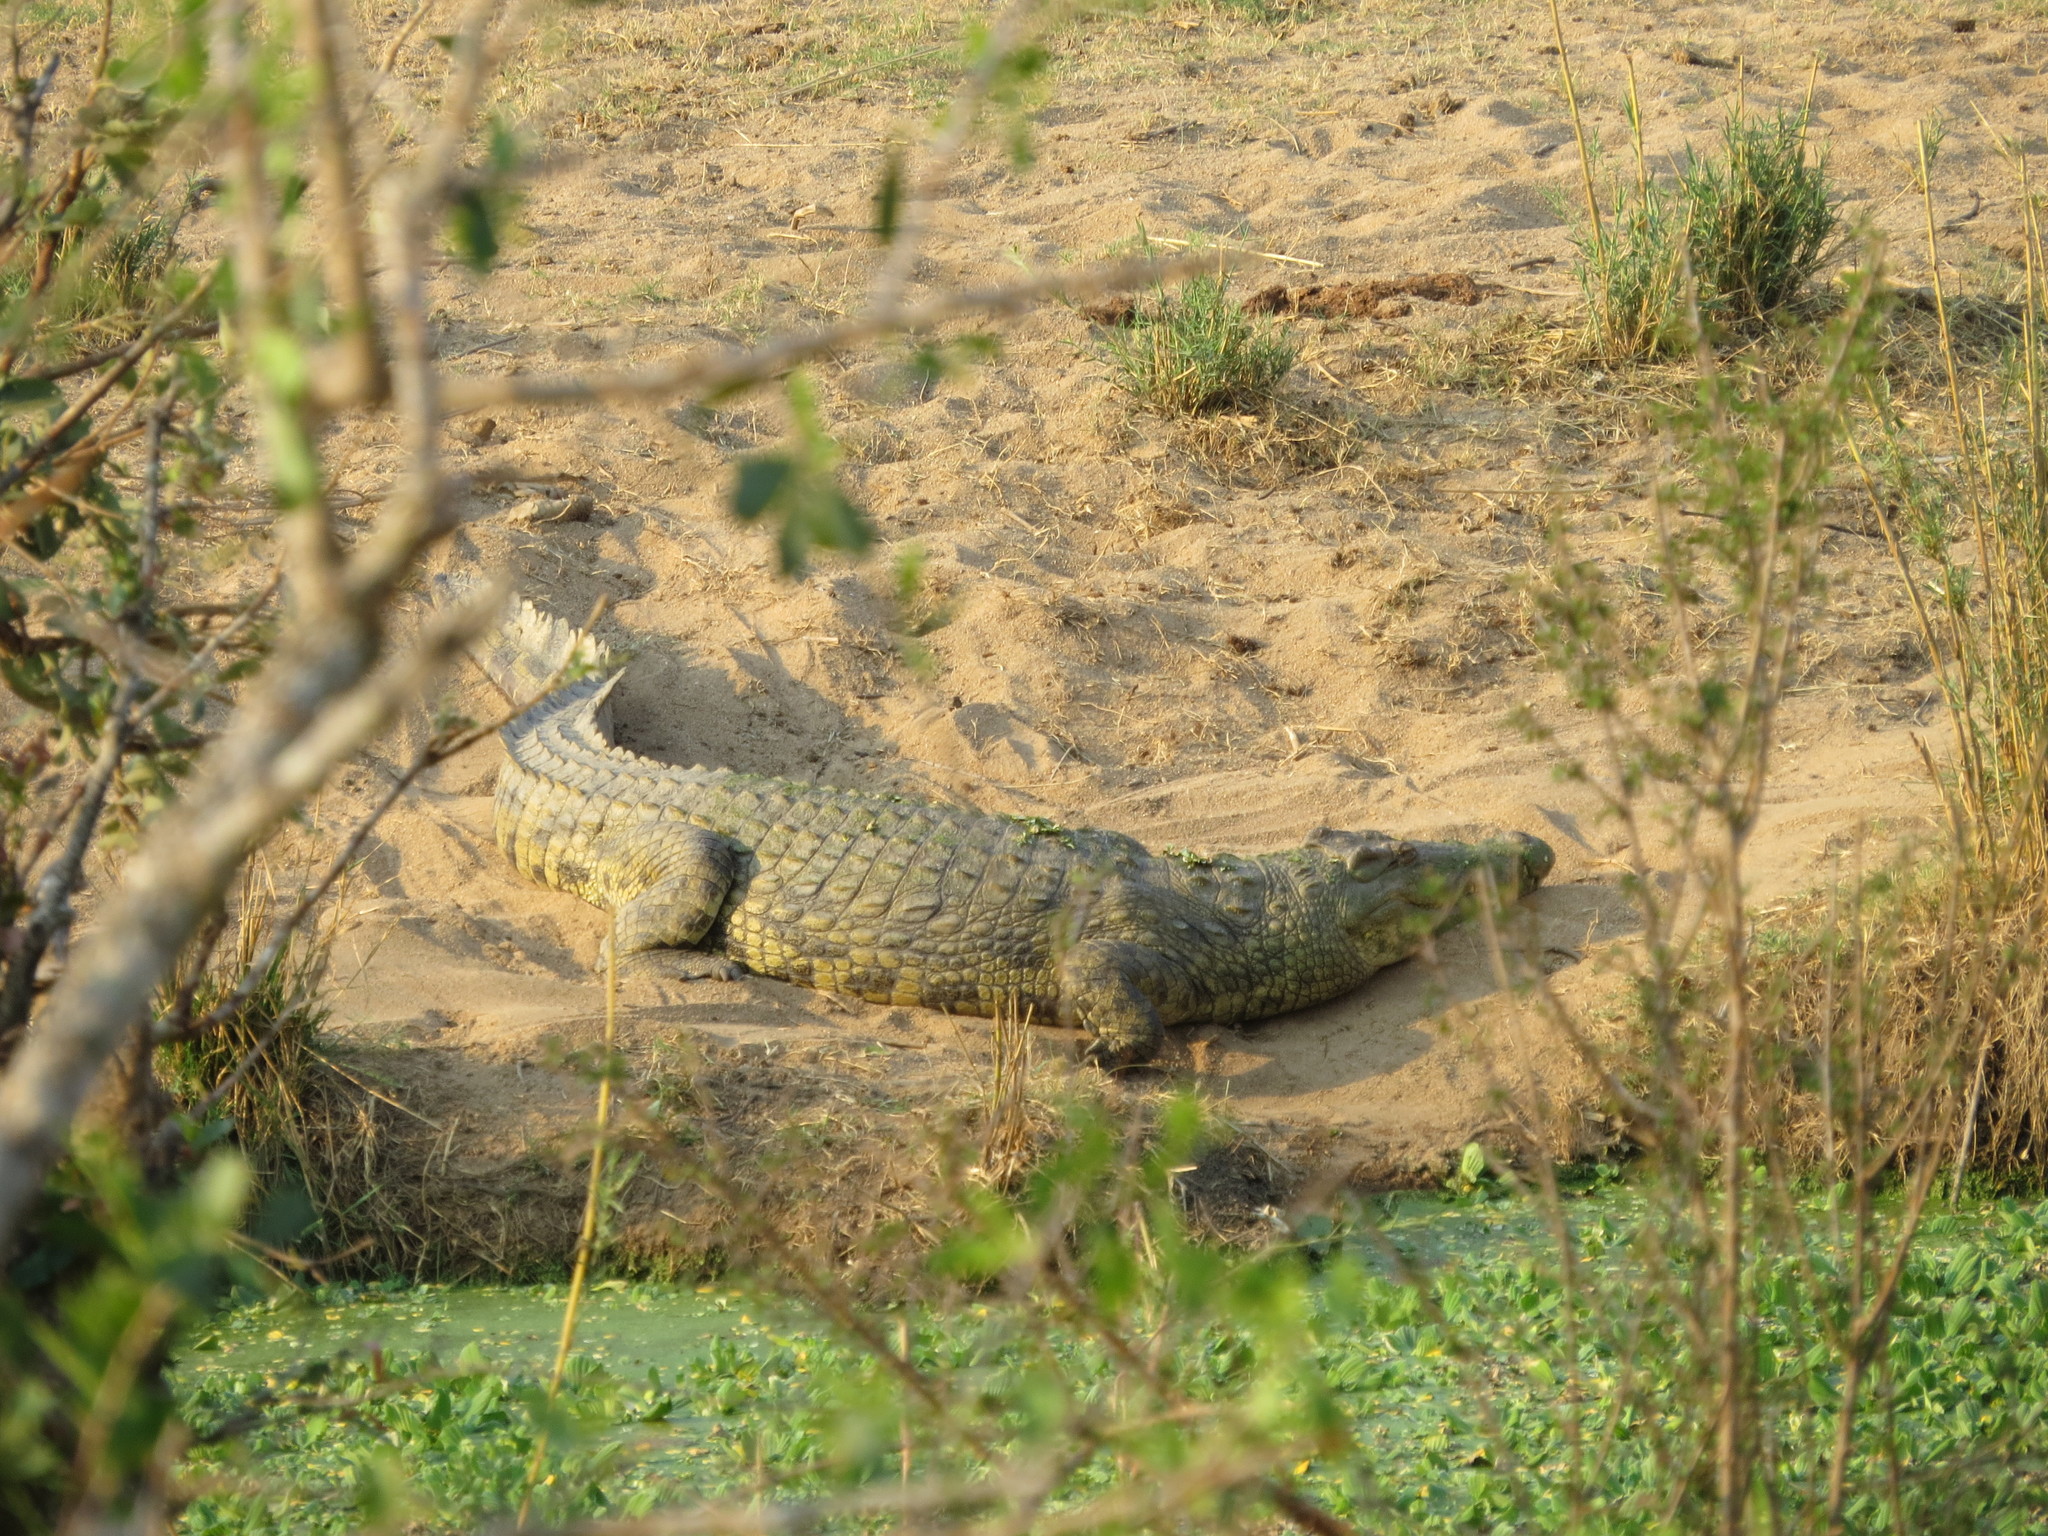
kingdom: Animalia
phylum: Chordata
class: Crocodylia
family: Crocodylidae
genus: Crocodylus
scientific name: Crocodylus niloticus
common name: Nile crocodile
